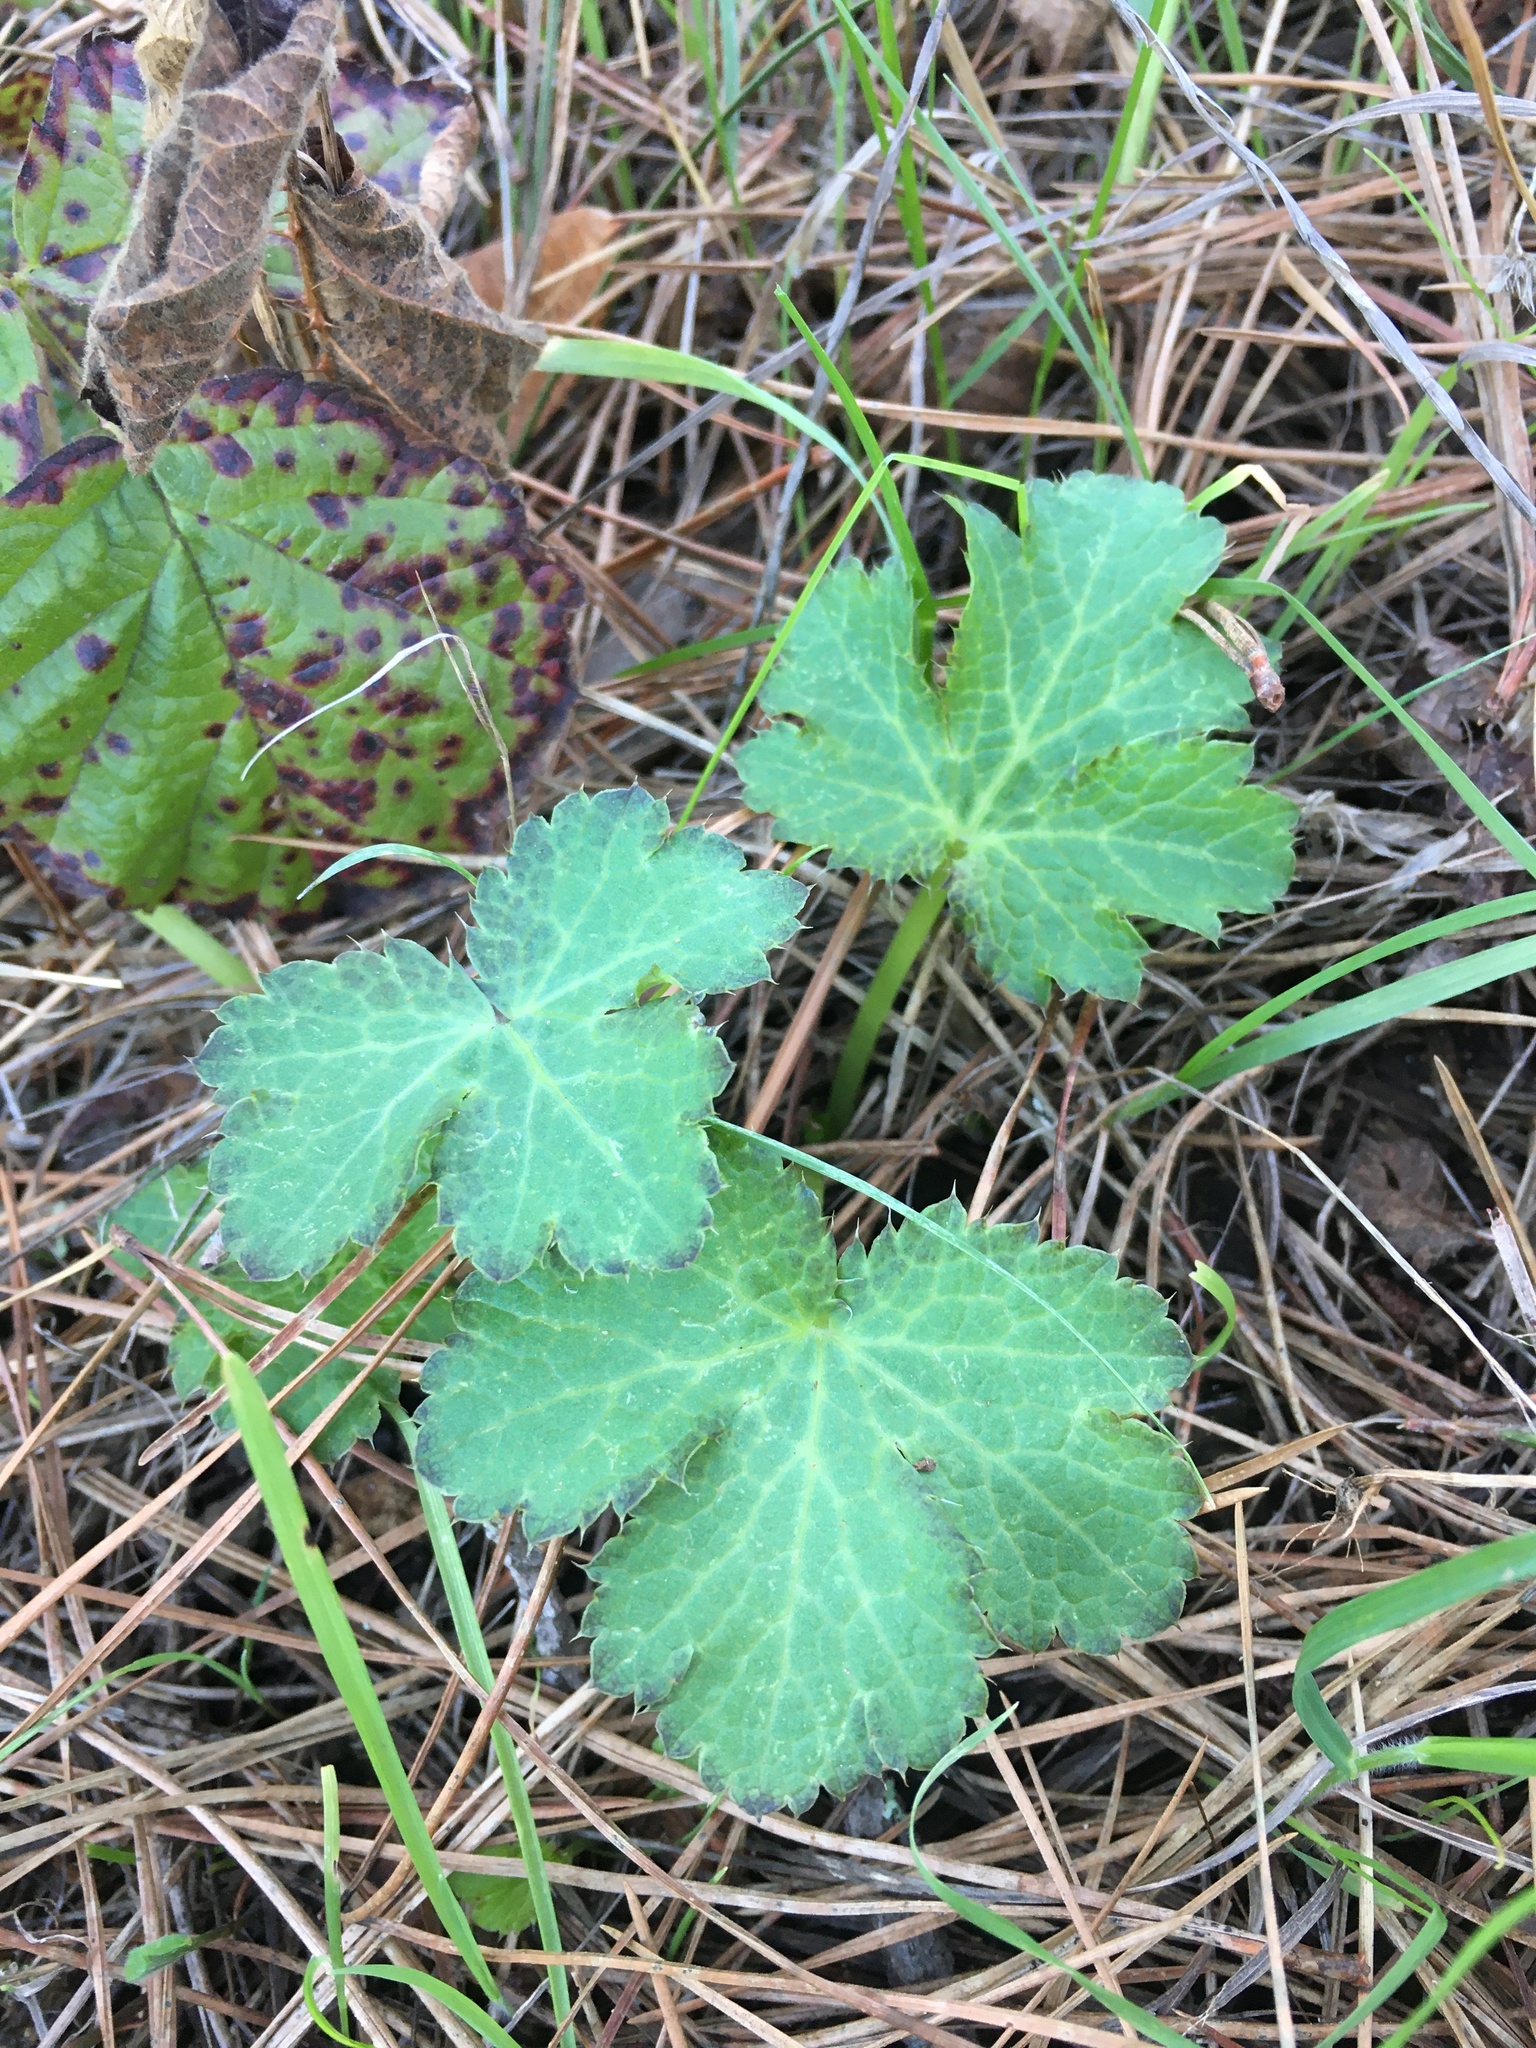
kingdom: Plantae
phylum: Tracheophyta
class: Magnoliopsida
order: Apiales
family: Apiaceae
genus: Sanicula
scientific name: Sanicula crassicaulis
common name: Western snakeroot
